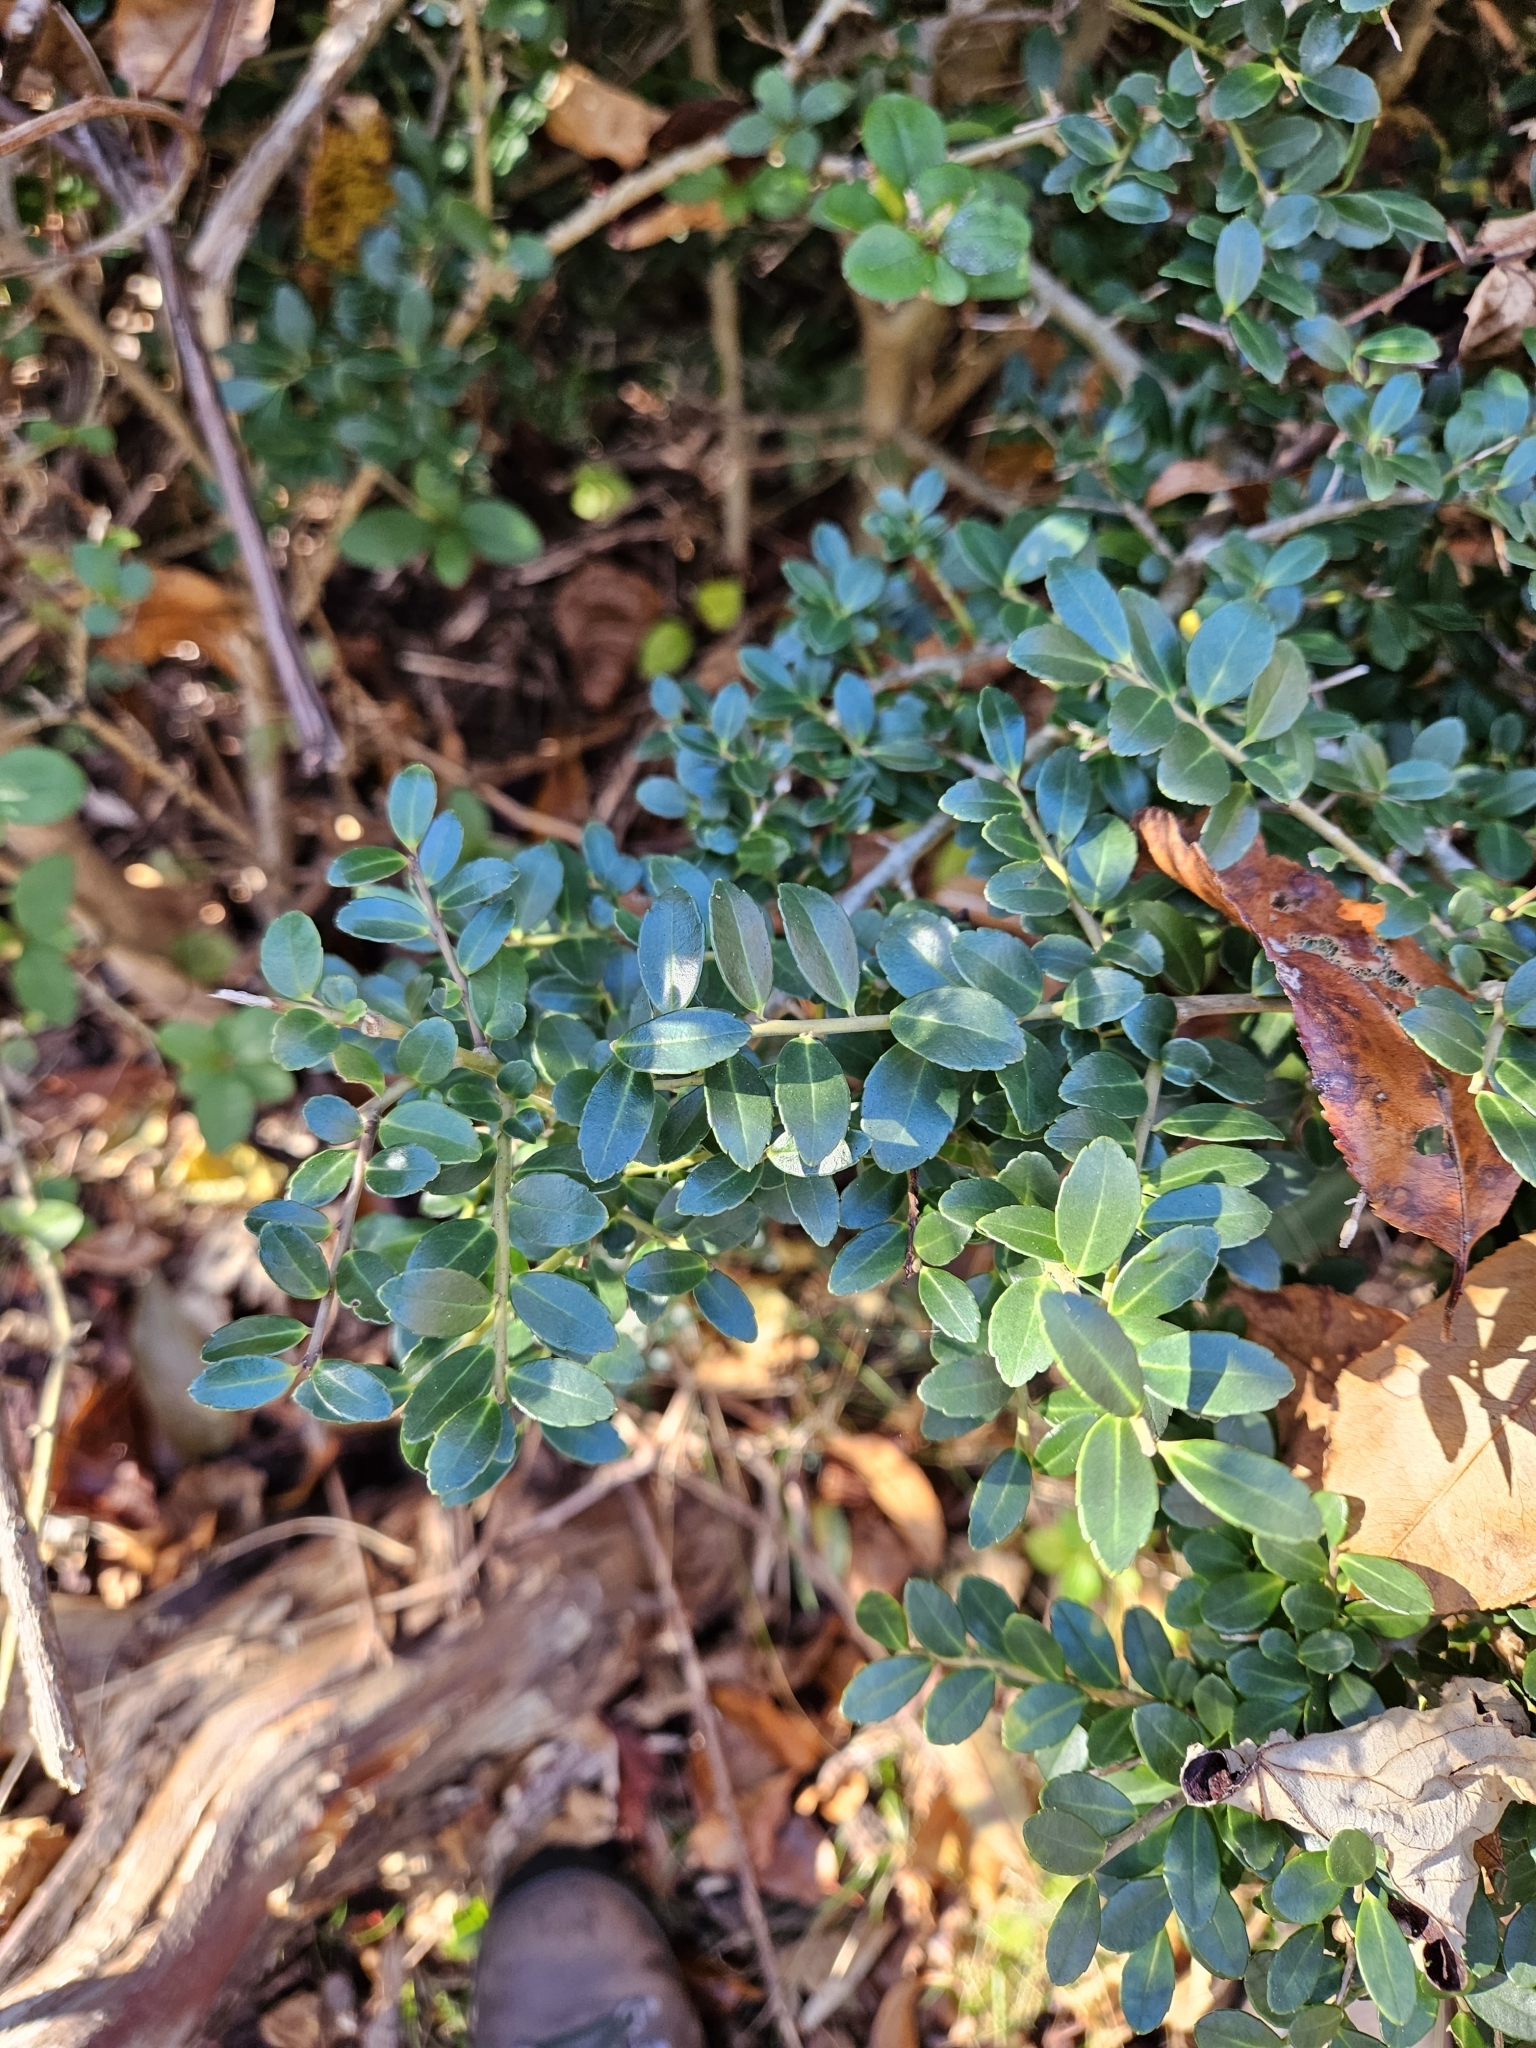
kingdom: Plantae
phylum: Tracheophyta
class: Magnoliopsida
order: Aquifoliales
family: Aquifoliaceae
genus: Ilex
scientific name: Ilex crenata
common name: Japanese holly
